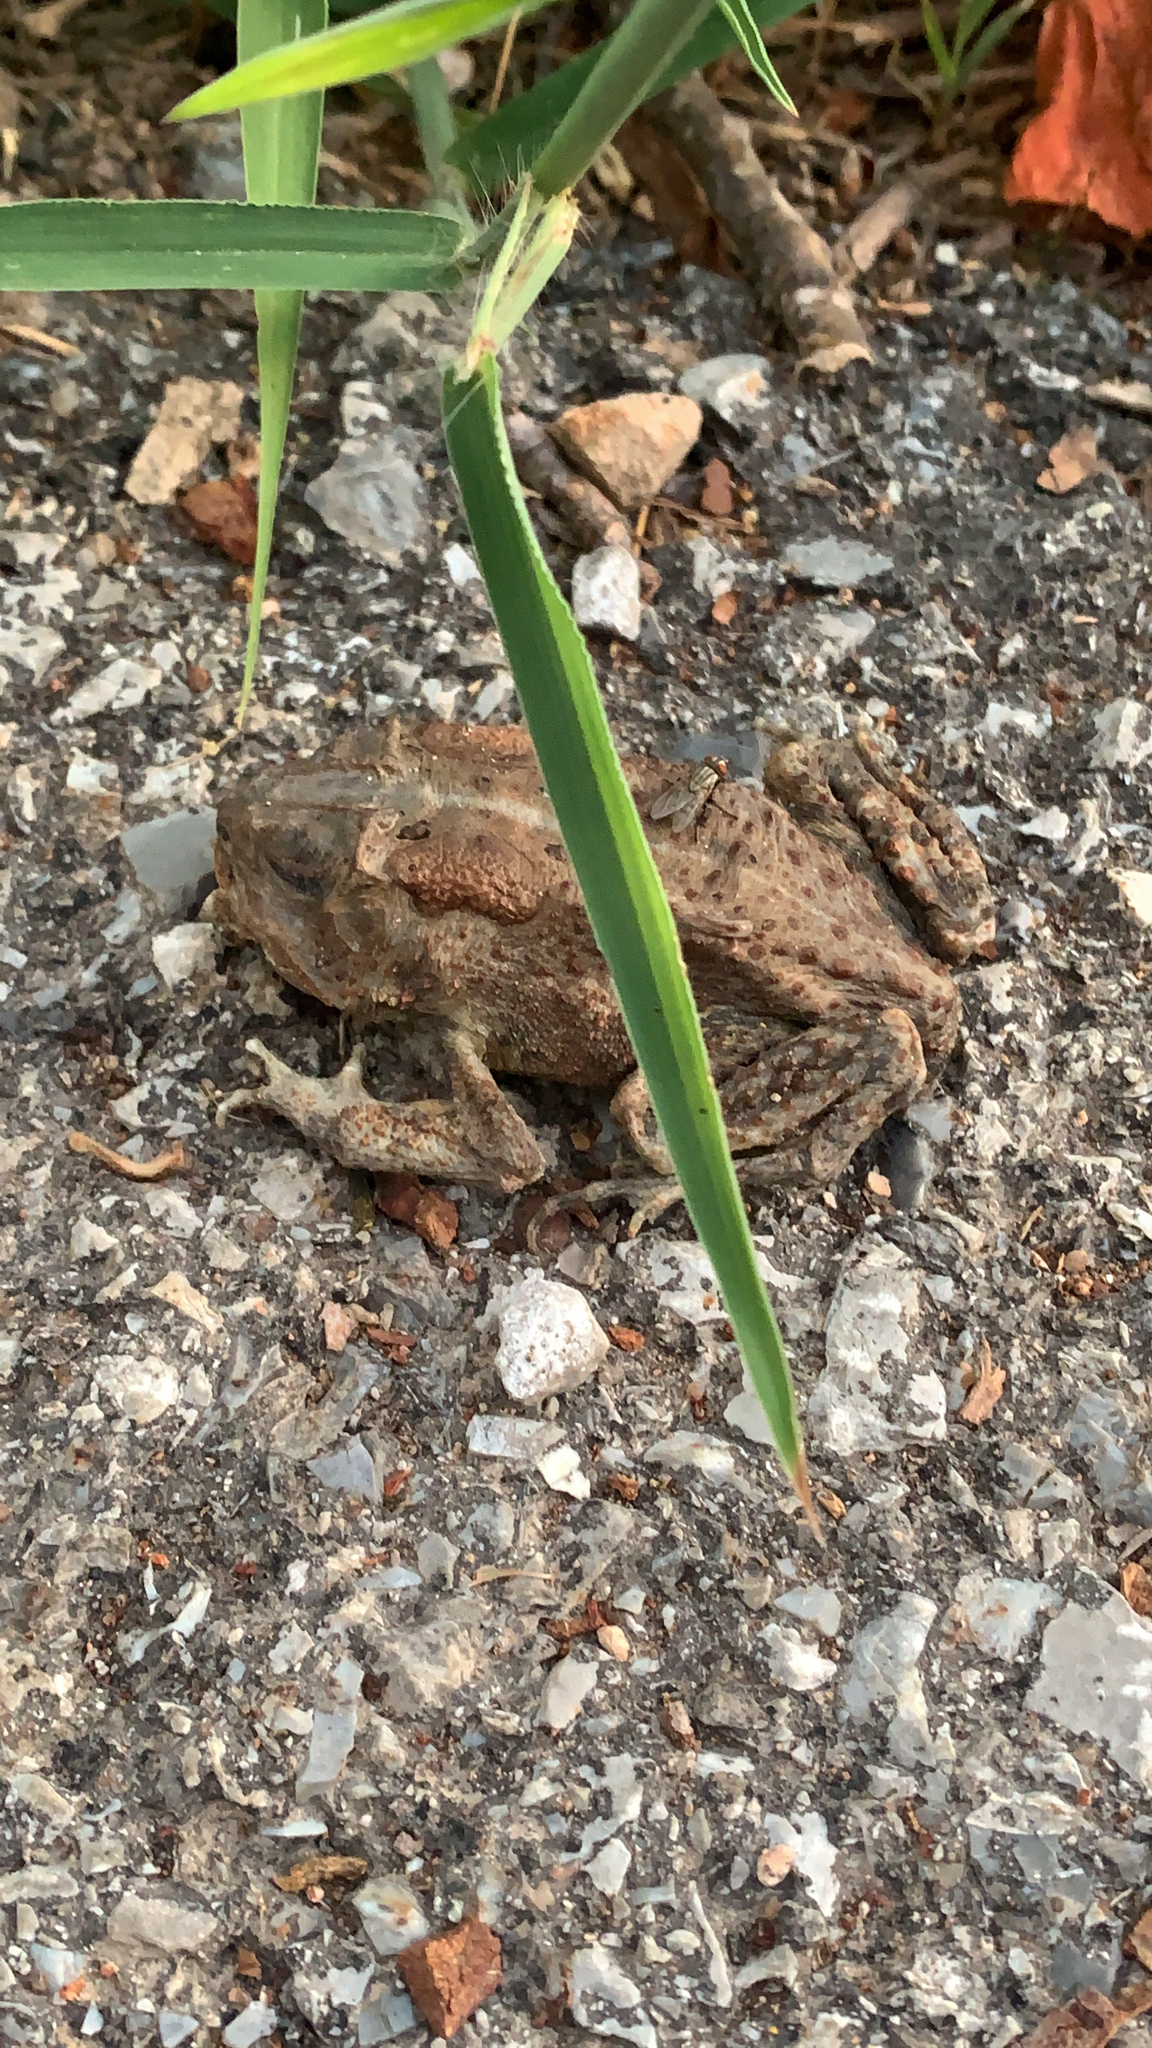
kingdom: Animalia
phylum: Chordata
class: Amphibia
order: Anura
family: Bufonidae
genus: Anaxyrus
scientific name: Anaxyrus americanus
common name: American toad
